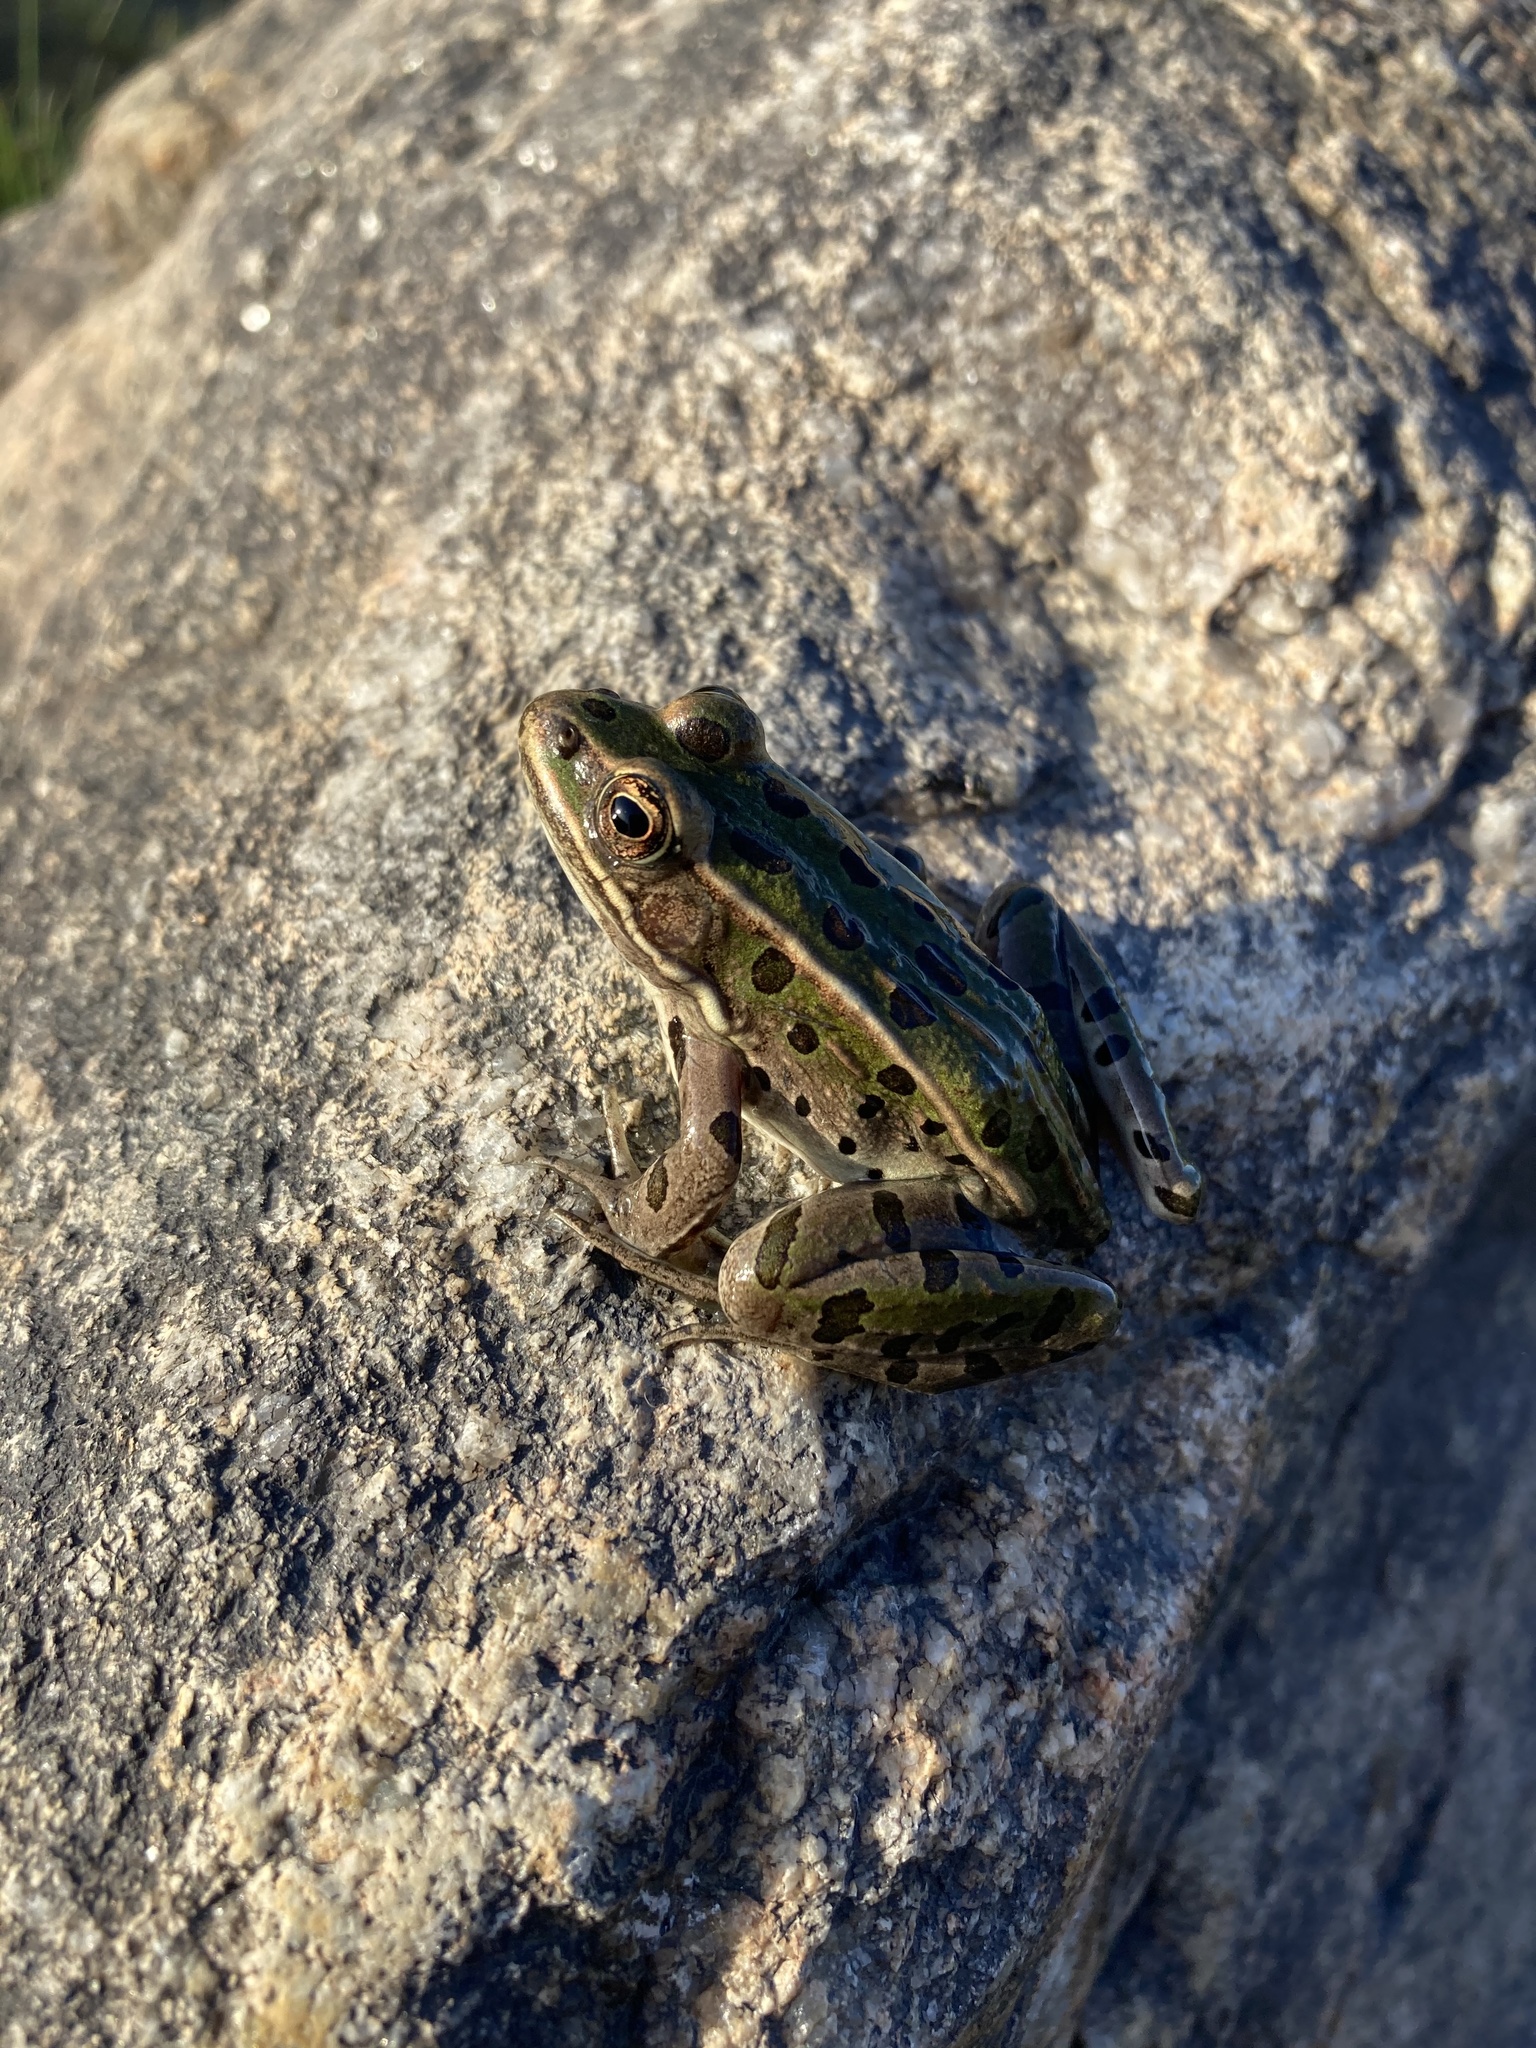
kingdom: Animalia
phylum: Chordata
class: Amphibia
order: Anura
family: Ranidae
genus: Lithobates
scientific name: Lithobates pipiens
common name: Northern leopard frog
